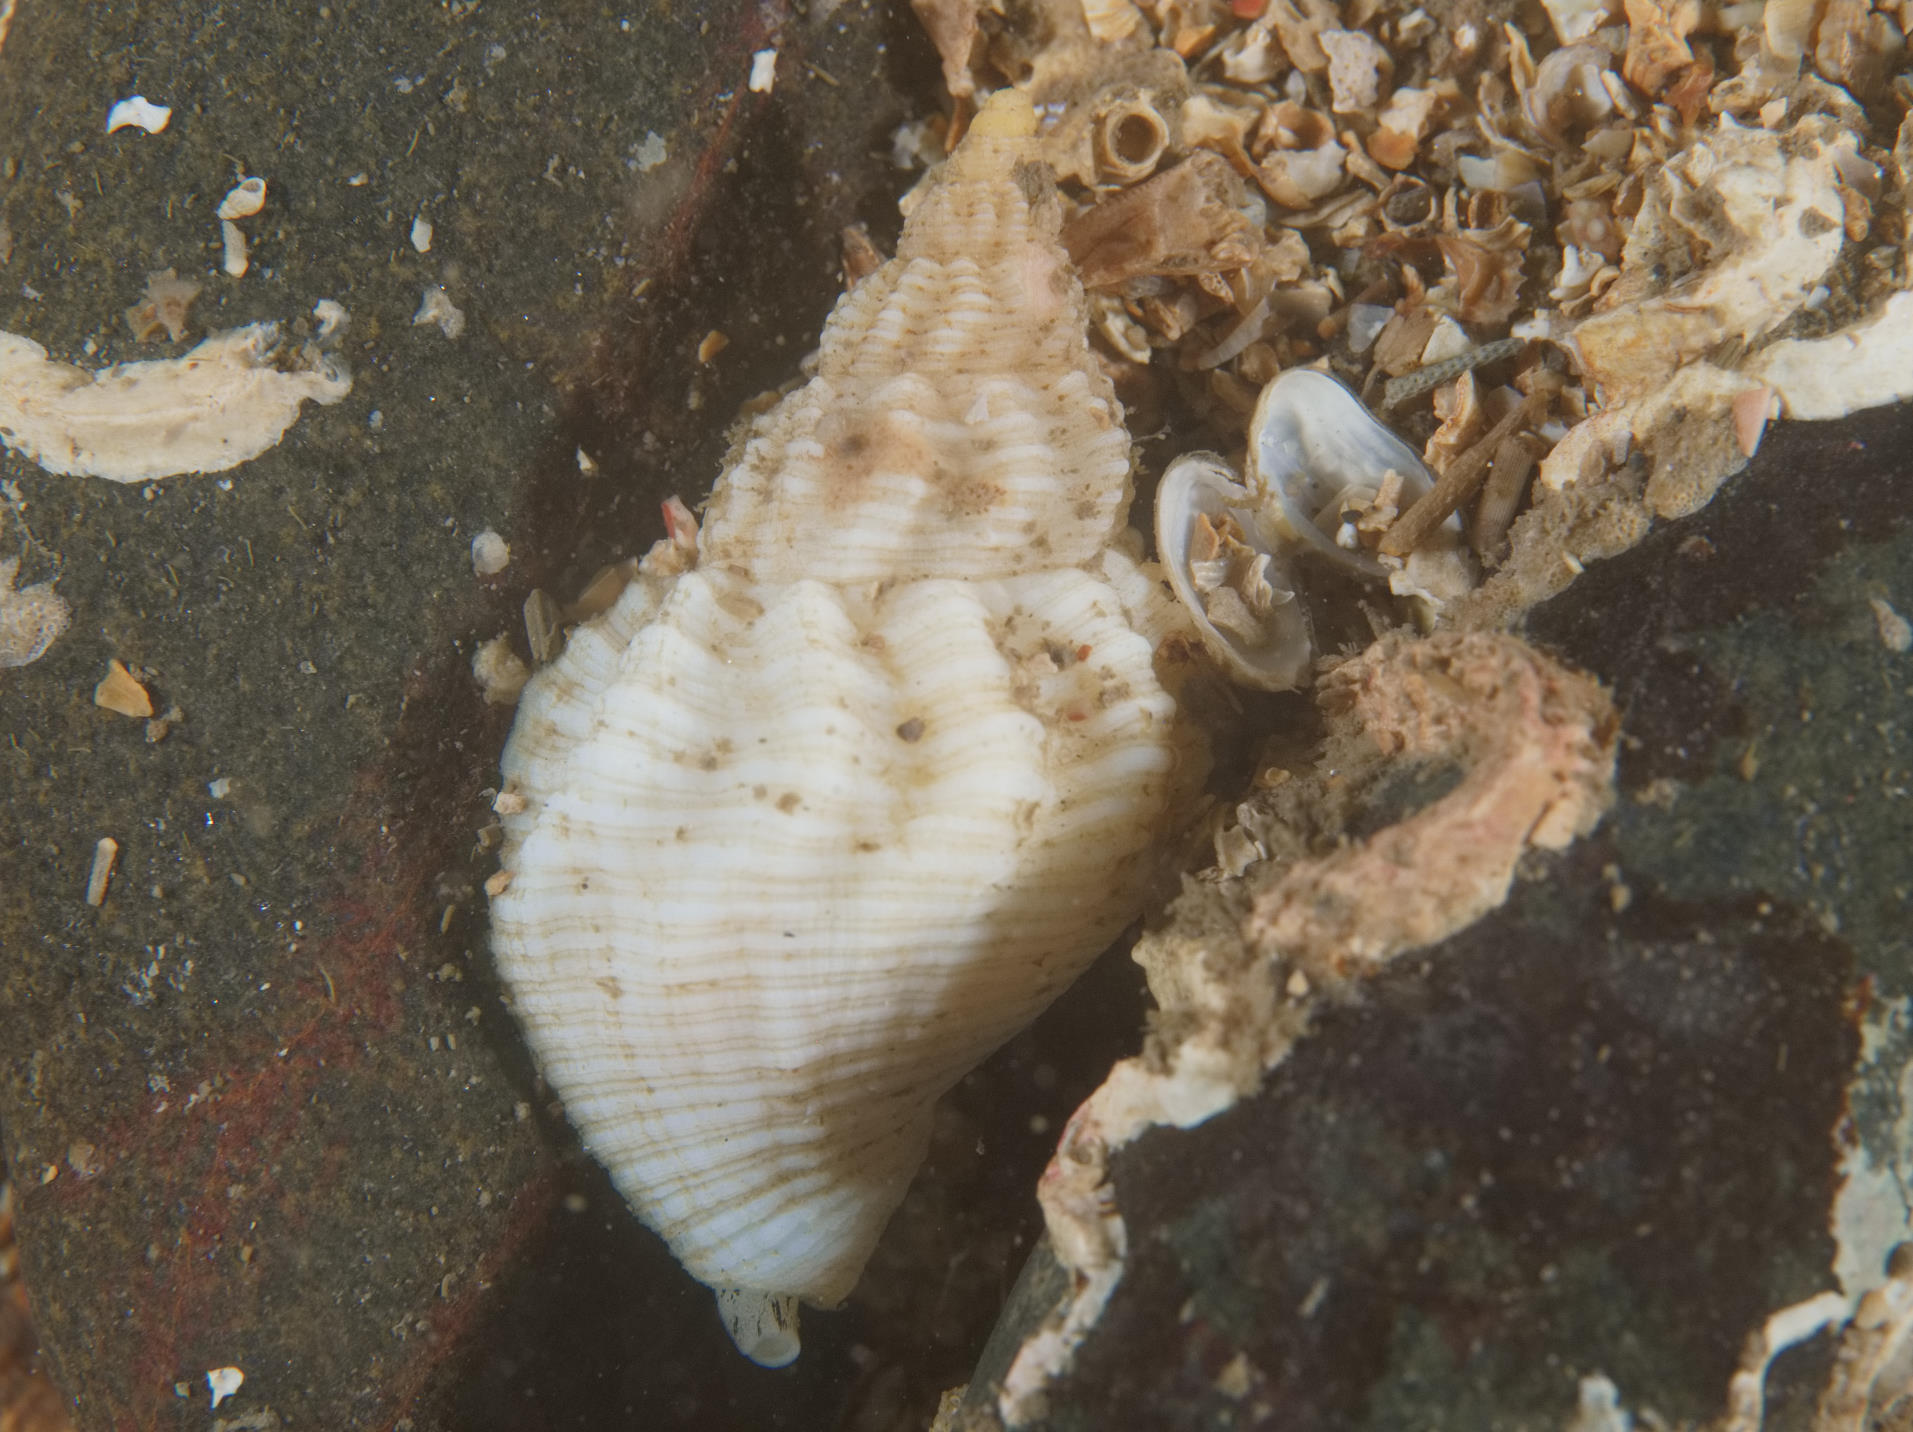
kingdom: Animalia
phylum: Mollusca
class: Gastropoda
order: Neogastropoda
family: Buccinidae
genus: Buccinum
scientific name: Buccinum undatum
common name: Common whelk
